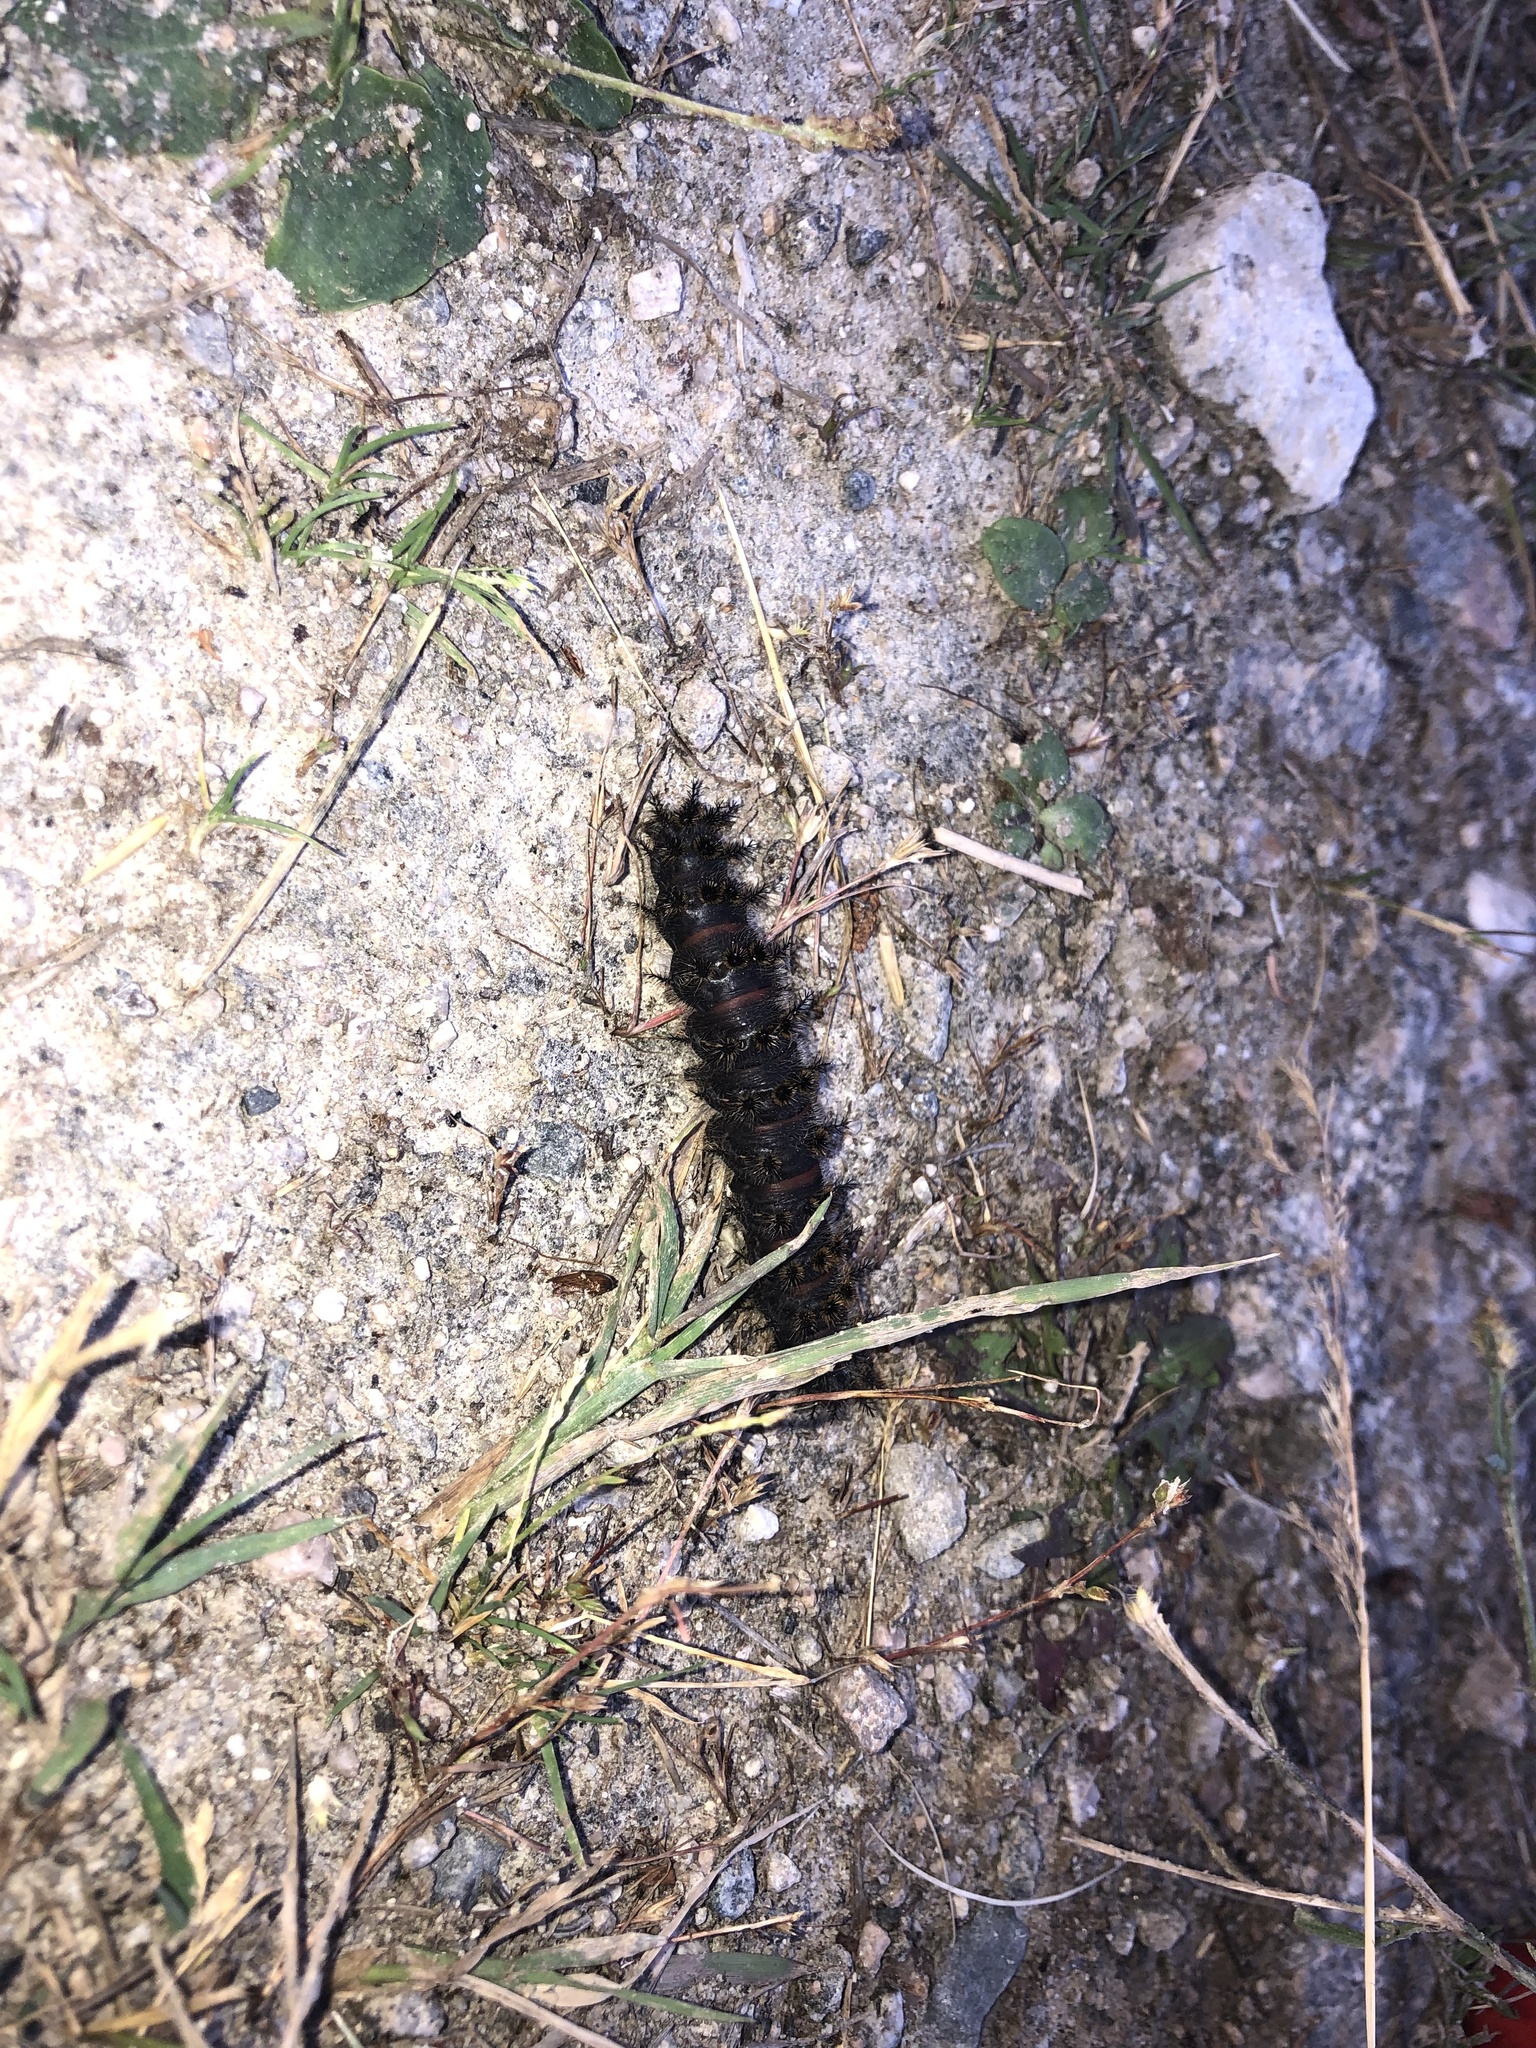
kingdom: Animalia
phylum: Arthropoda
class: Insecta
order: Lepidoptera
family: Saturniidae
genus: Hemileuca
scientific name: Hemileuca eglanterina
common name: Western sheepmoth
